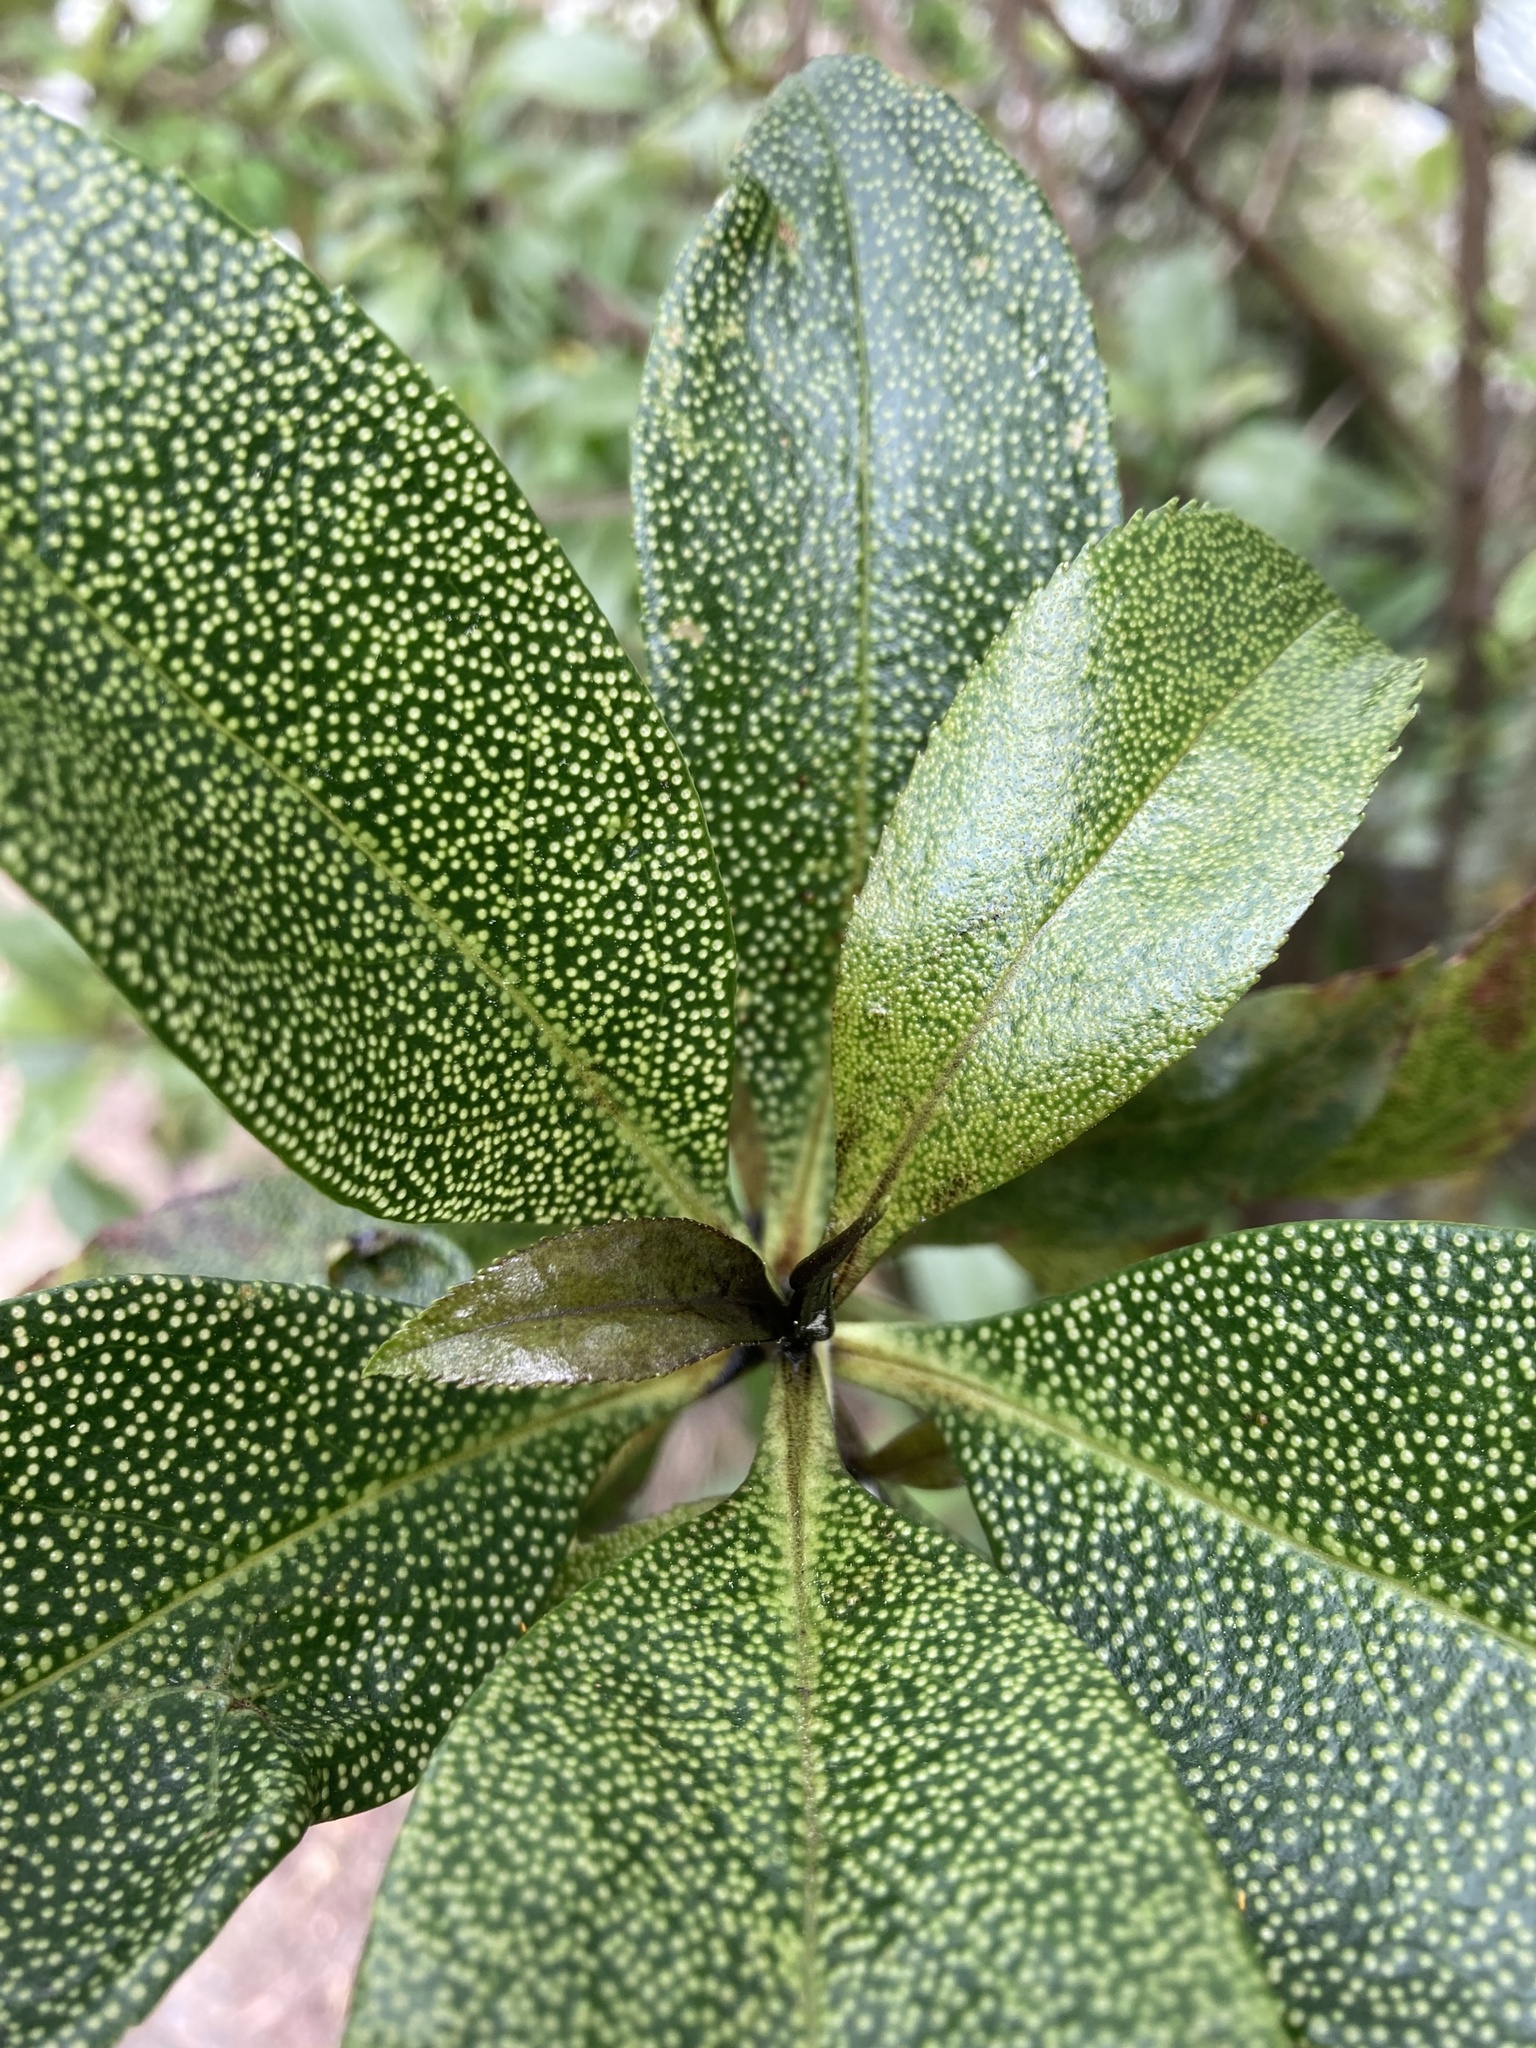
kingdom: Plantae
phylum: Tracheophyta
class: Magnoliopsida
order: Lamiales
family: Scrophulariaceae
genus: Myoporum
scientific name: Myoporum laetum
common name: Ngaio tree
